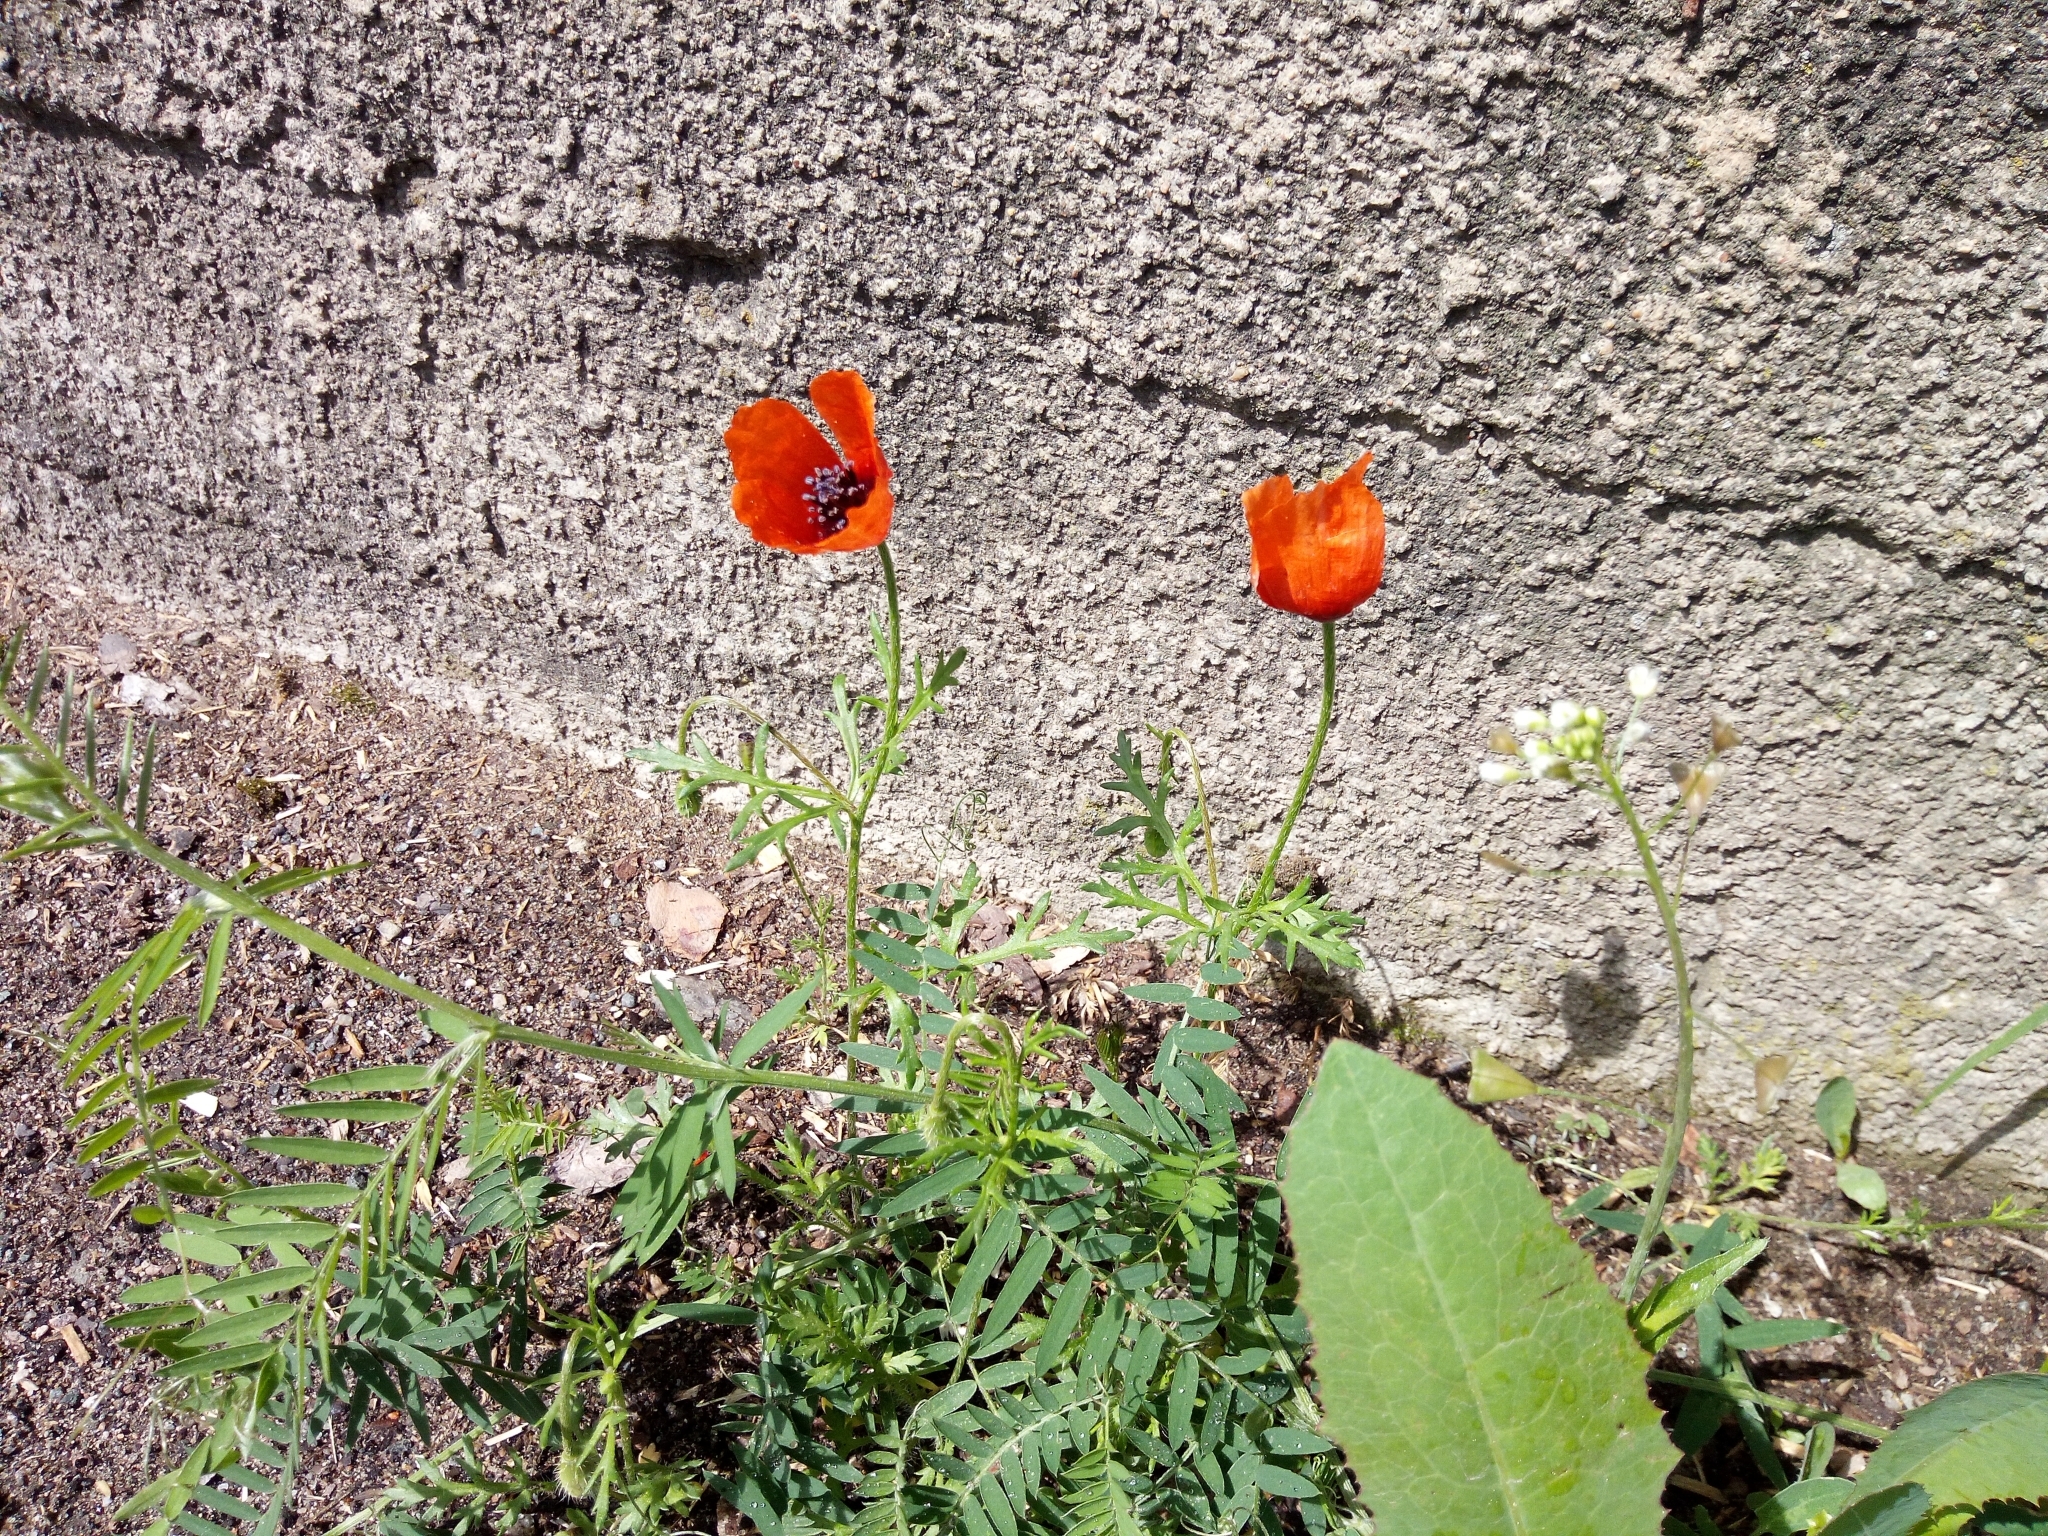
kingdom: Plantae
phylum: Tracheophyta
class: Magnoliopsida
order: Ranunculales
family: Papaveraceae
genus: Roemeria
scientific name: Roemeria argemone
